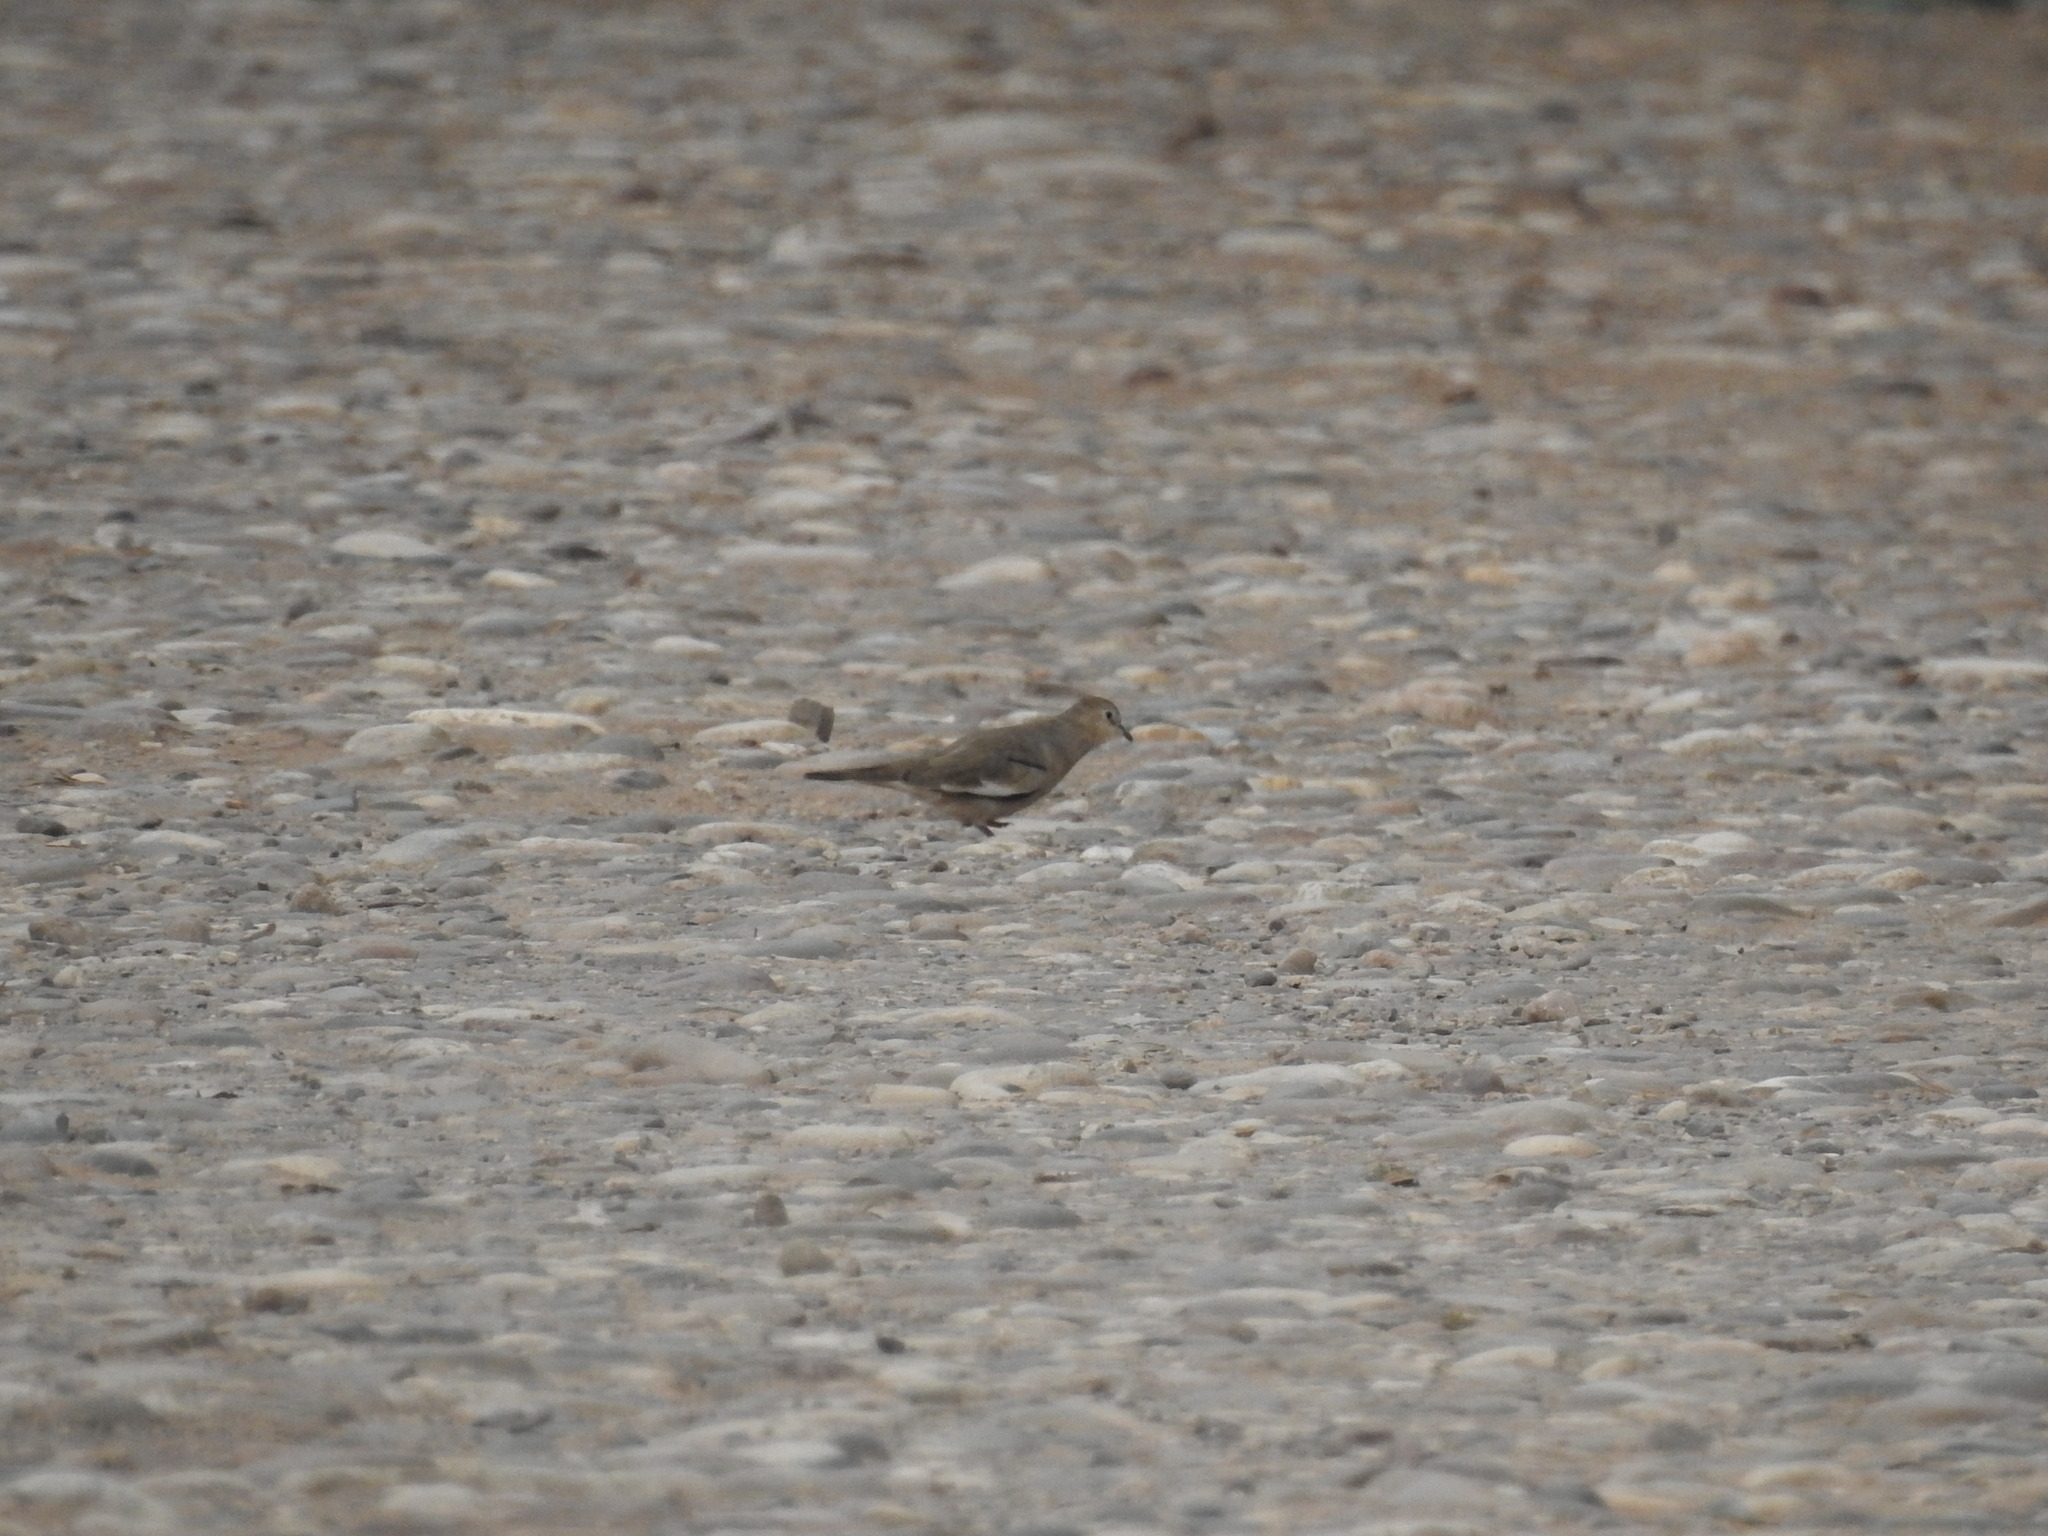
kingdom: Animalia
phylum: Chordata
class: Aves
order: Columbiformes
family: Columbidae
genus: Columbina
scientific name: Columbina picui
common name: Picui ground dove
